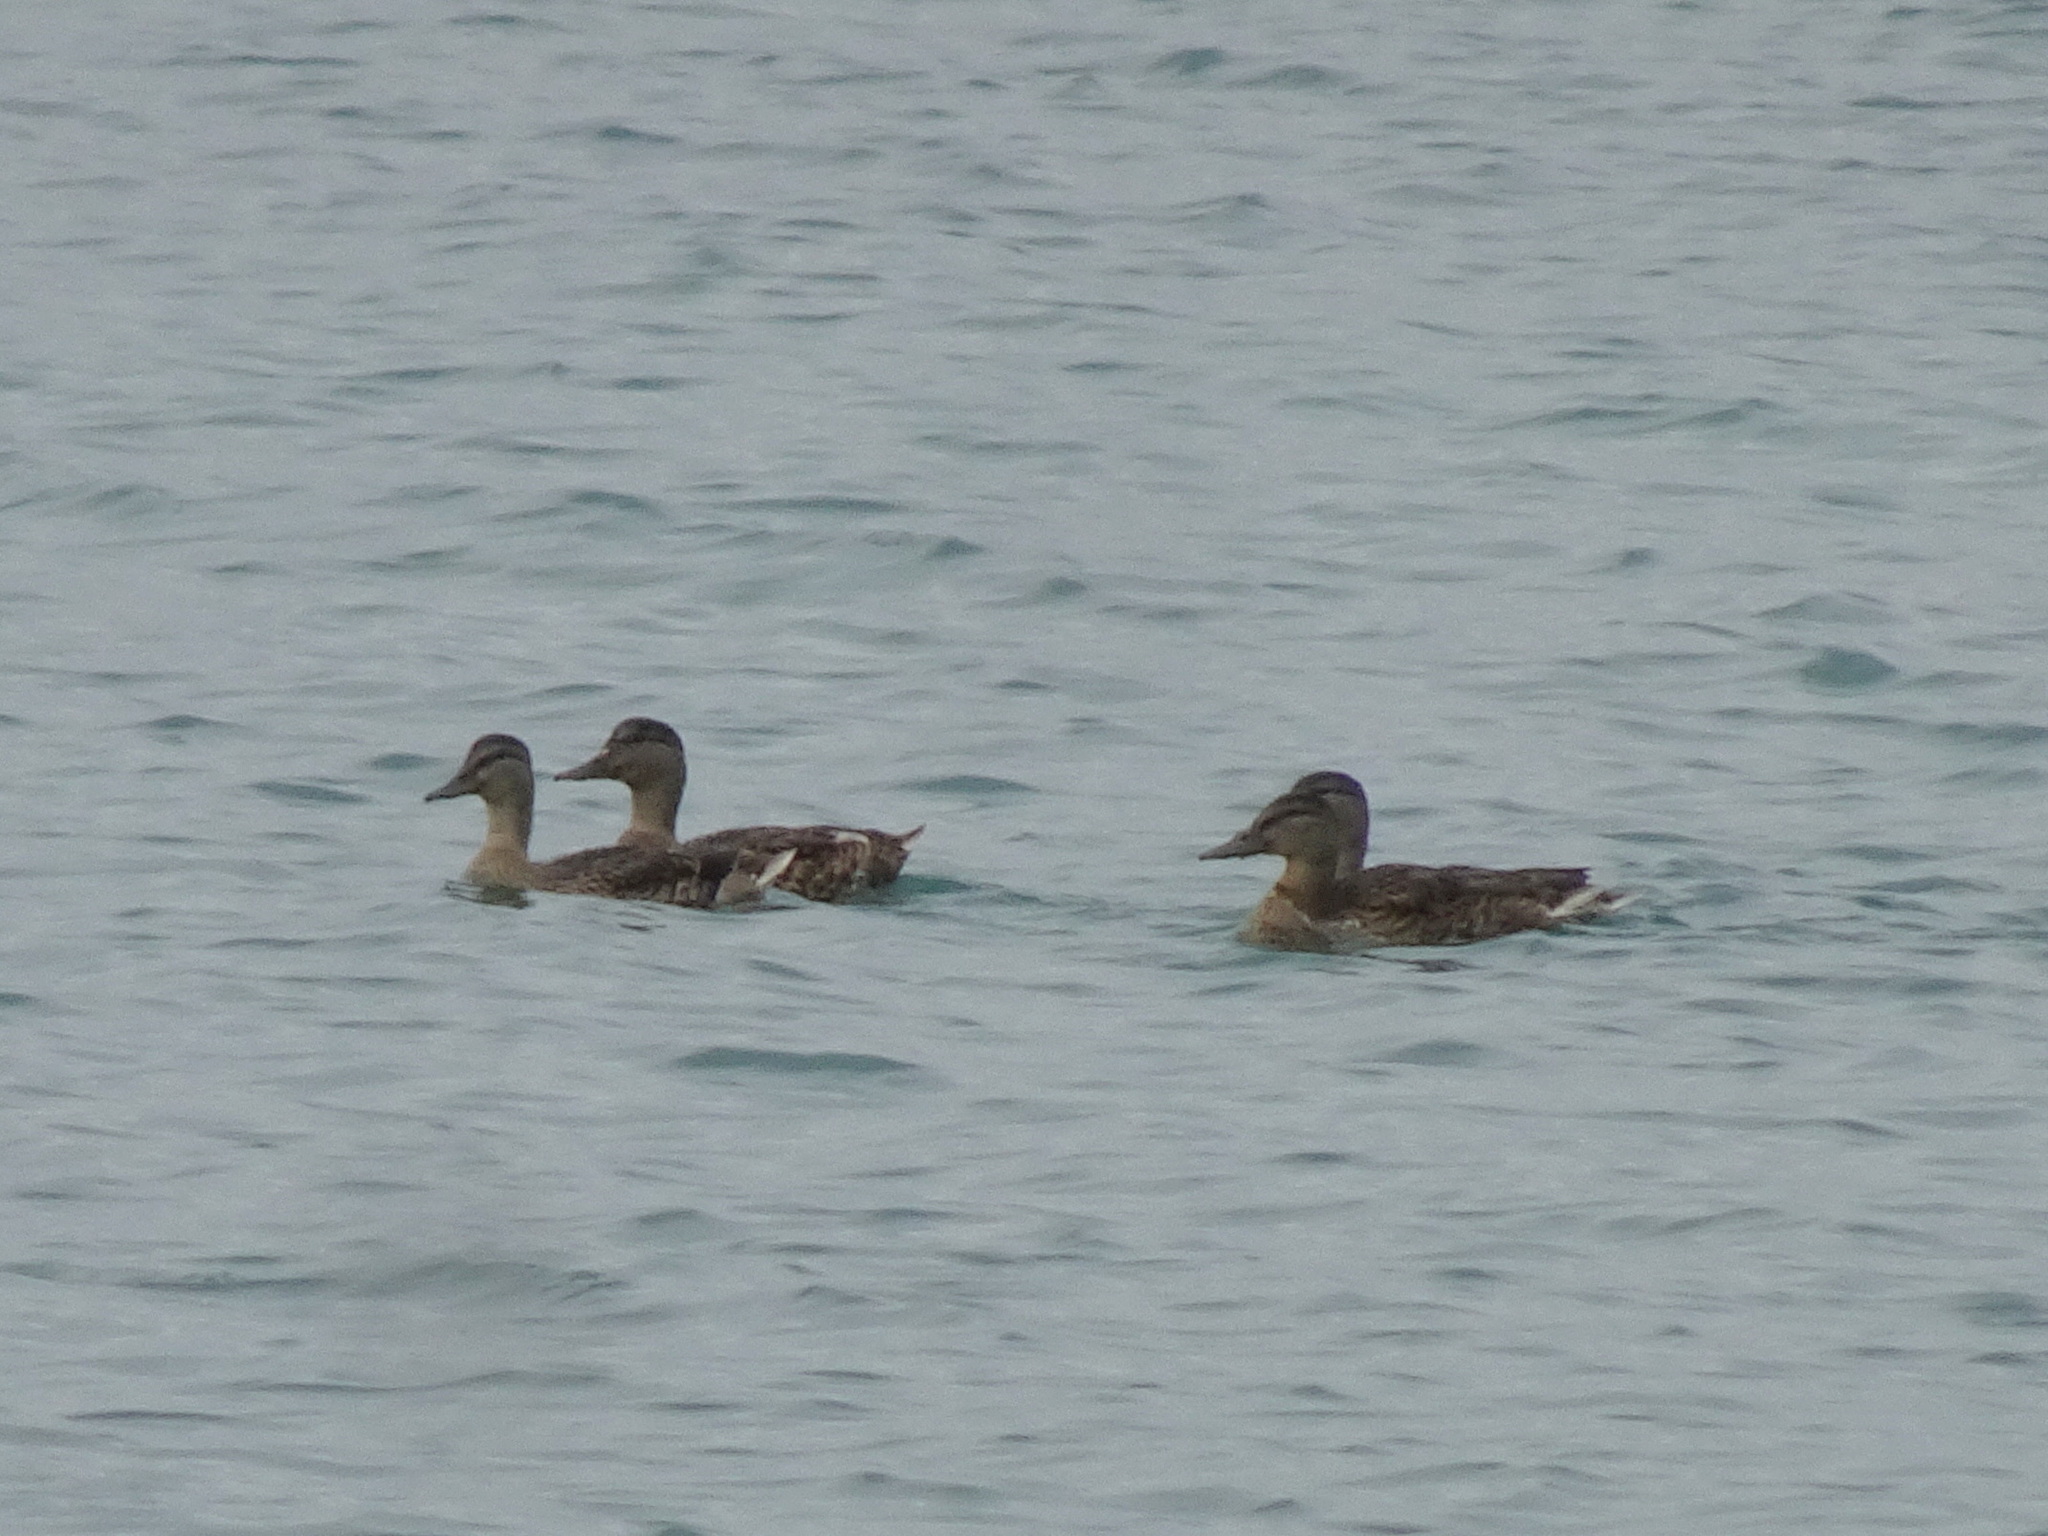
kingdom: Animalia
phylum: Chordata
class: Aves
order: Anseriformes
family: Anatidae
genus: Anas
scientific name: Anas platyrhynchos
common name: Mallard
